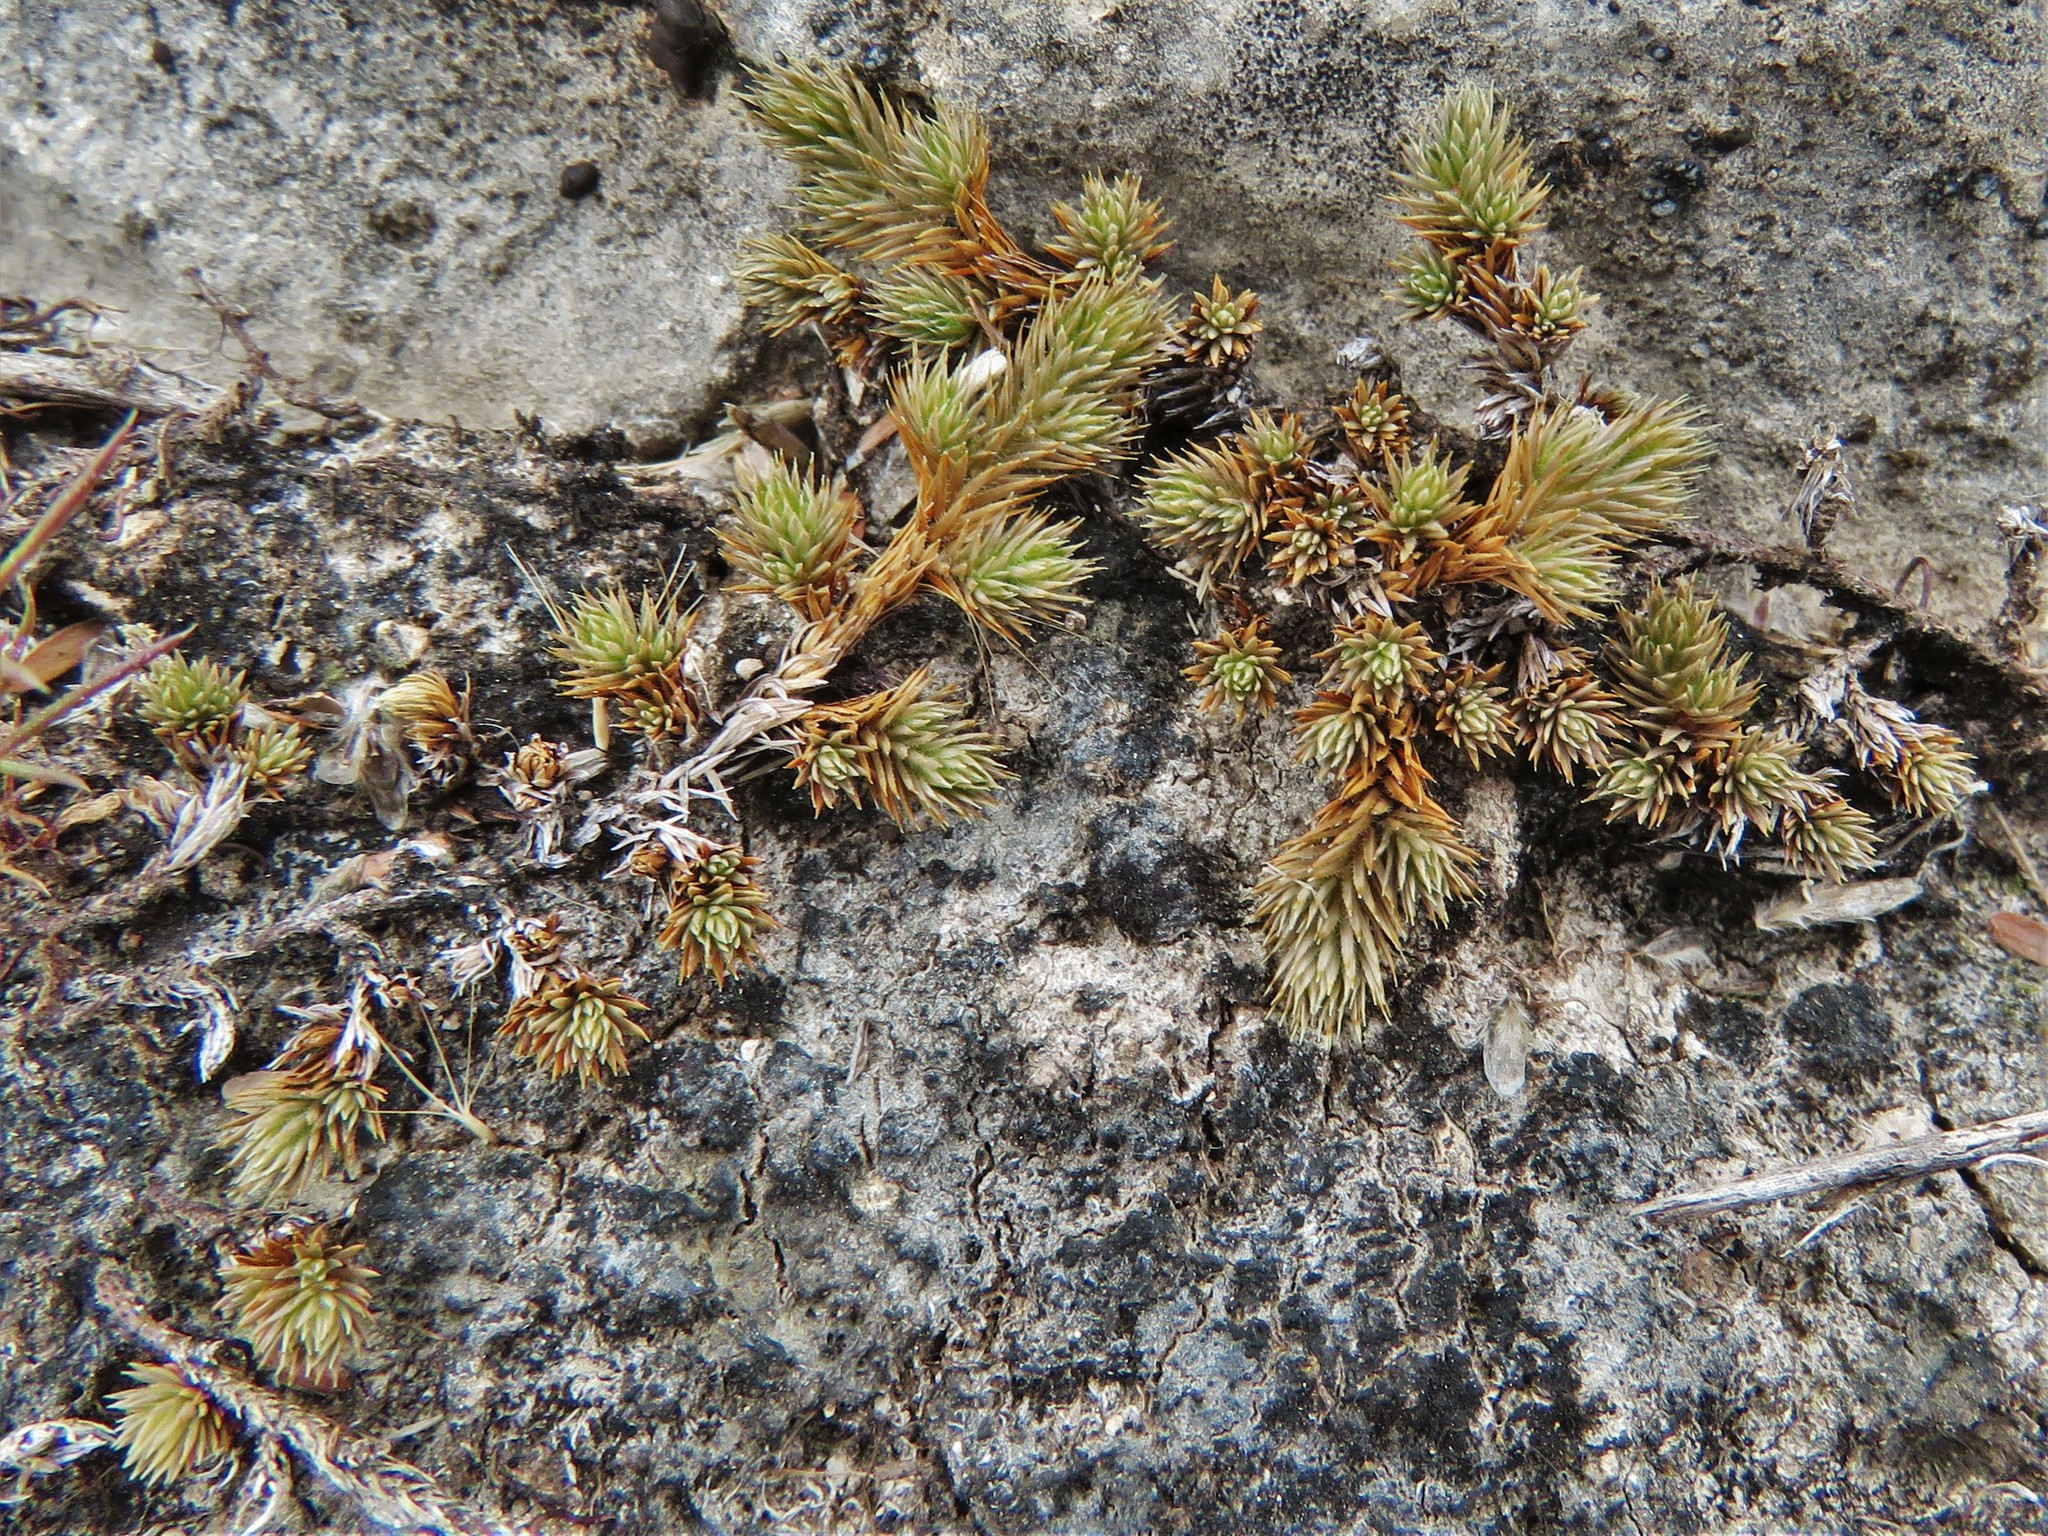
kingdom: Plantae
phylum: Tracheophyta
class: Lycopodiopsida
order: Selaginellales
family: Selaginellaceae
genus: Selaginella
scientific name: Selaginella wrightii
